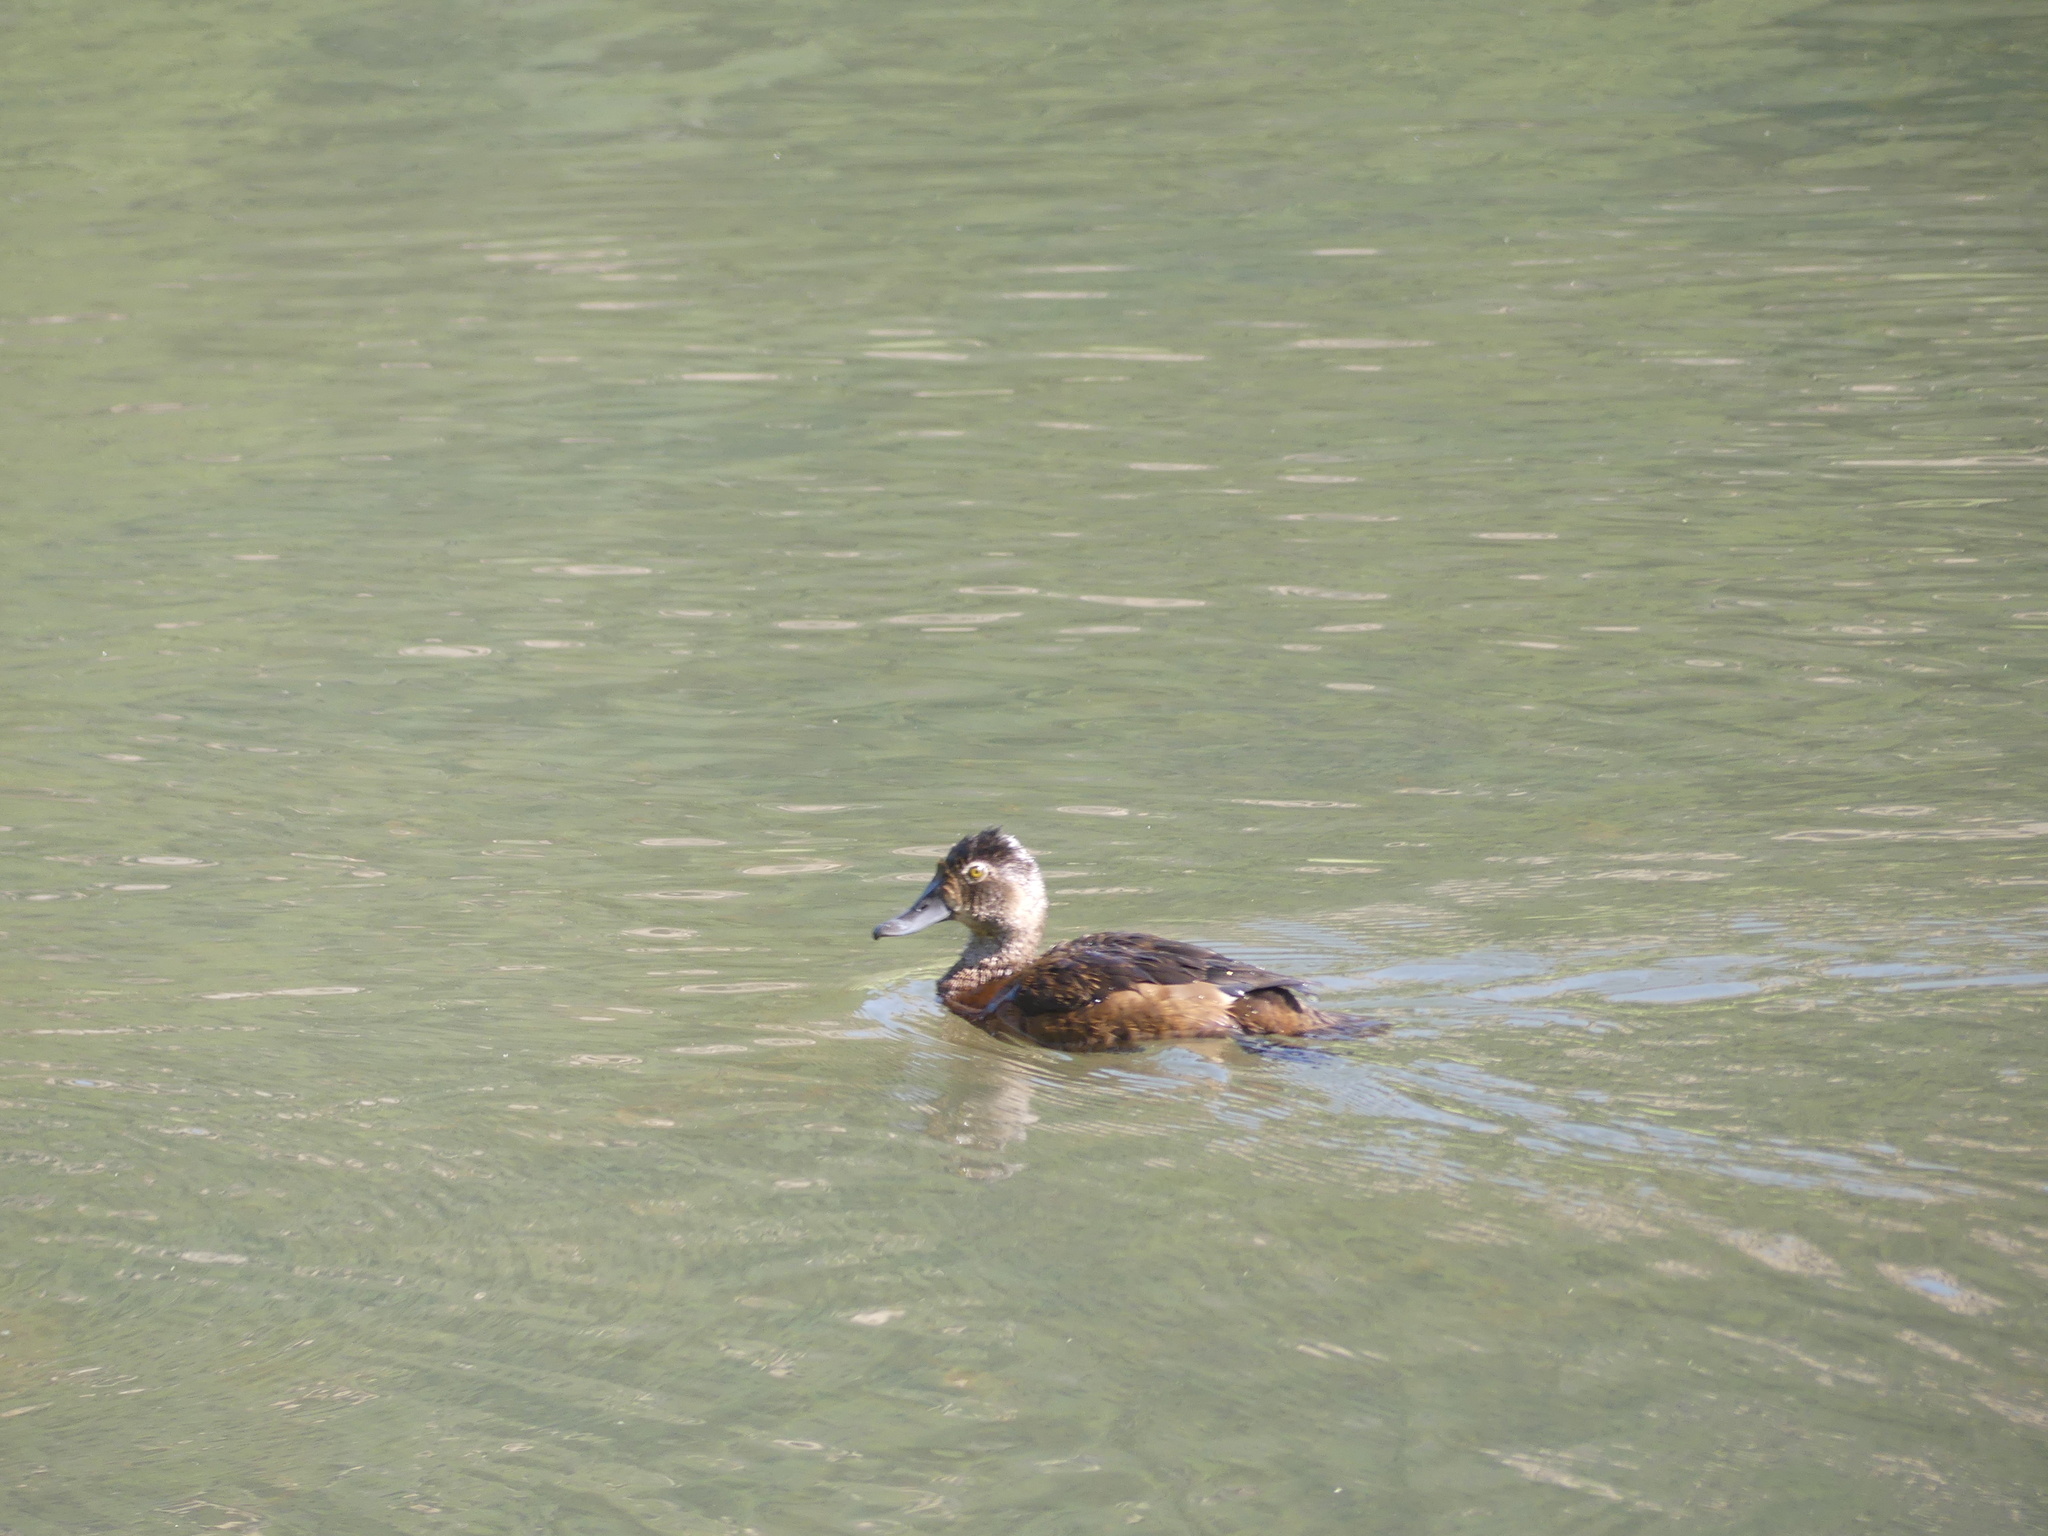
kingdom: Animalia
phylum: Chordata
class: Aves
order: Anseriformes
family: Anatidae
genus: Aythya
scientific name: Aythya collaris
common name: Ring-necked duck
